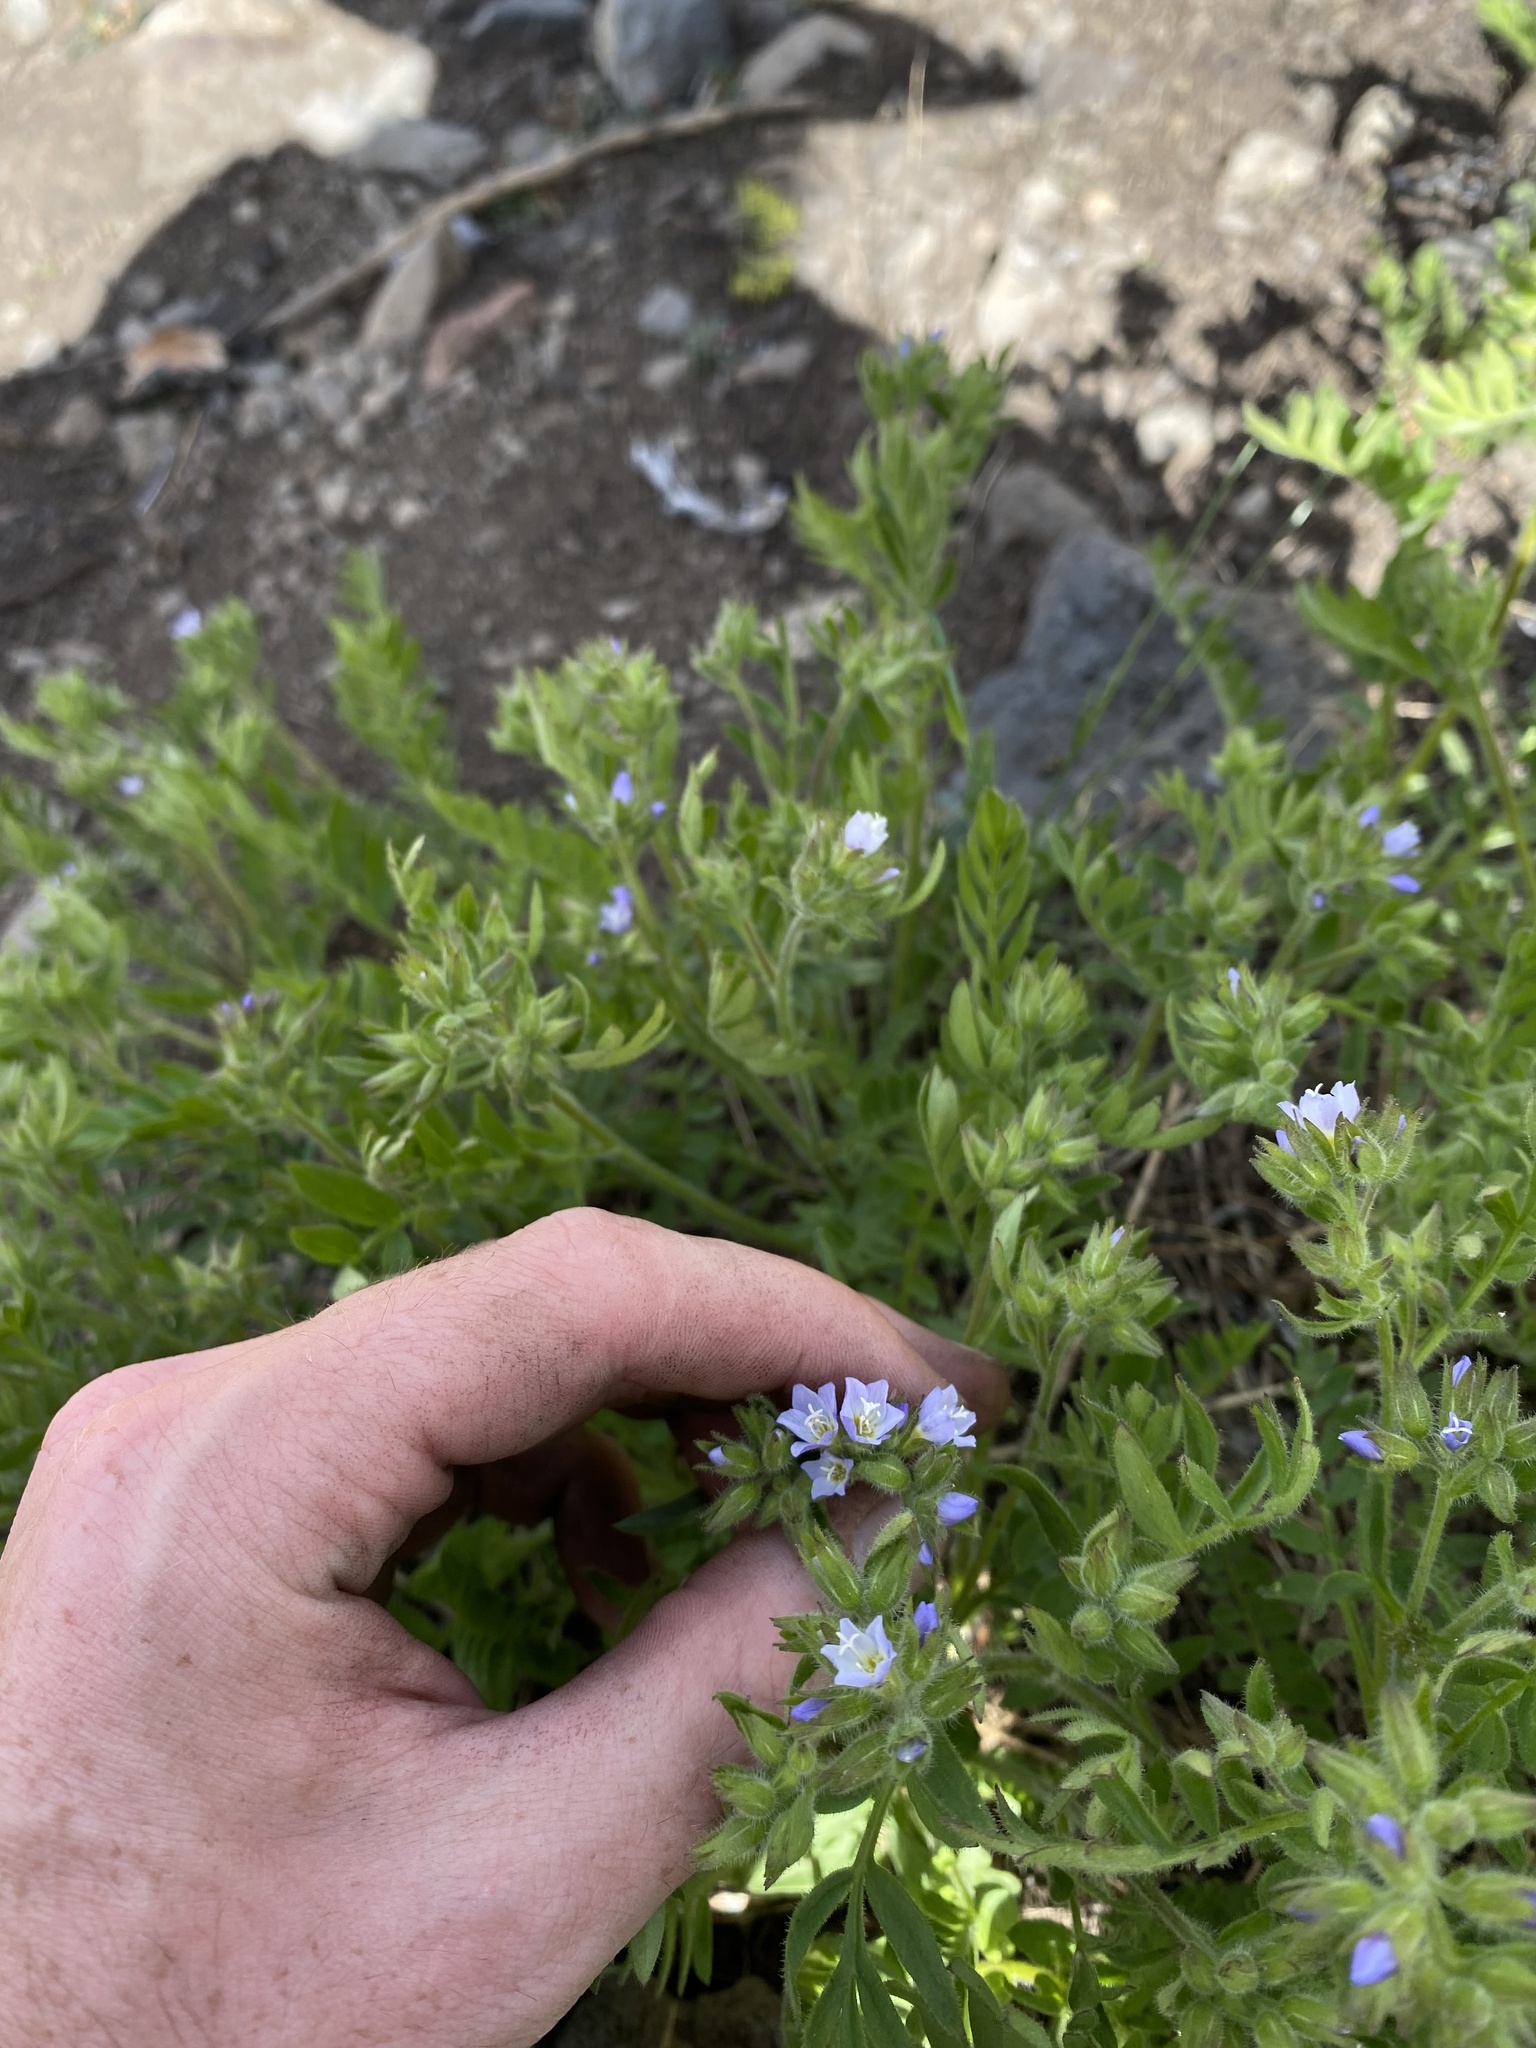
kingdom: Plantae
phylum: Tracheophyta
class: Magnoliopsida
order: Ericales
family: Polemoniaceae
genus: Polemonium
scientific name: Polemonium californicum
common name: California jacob's ladder
